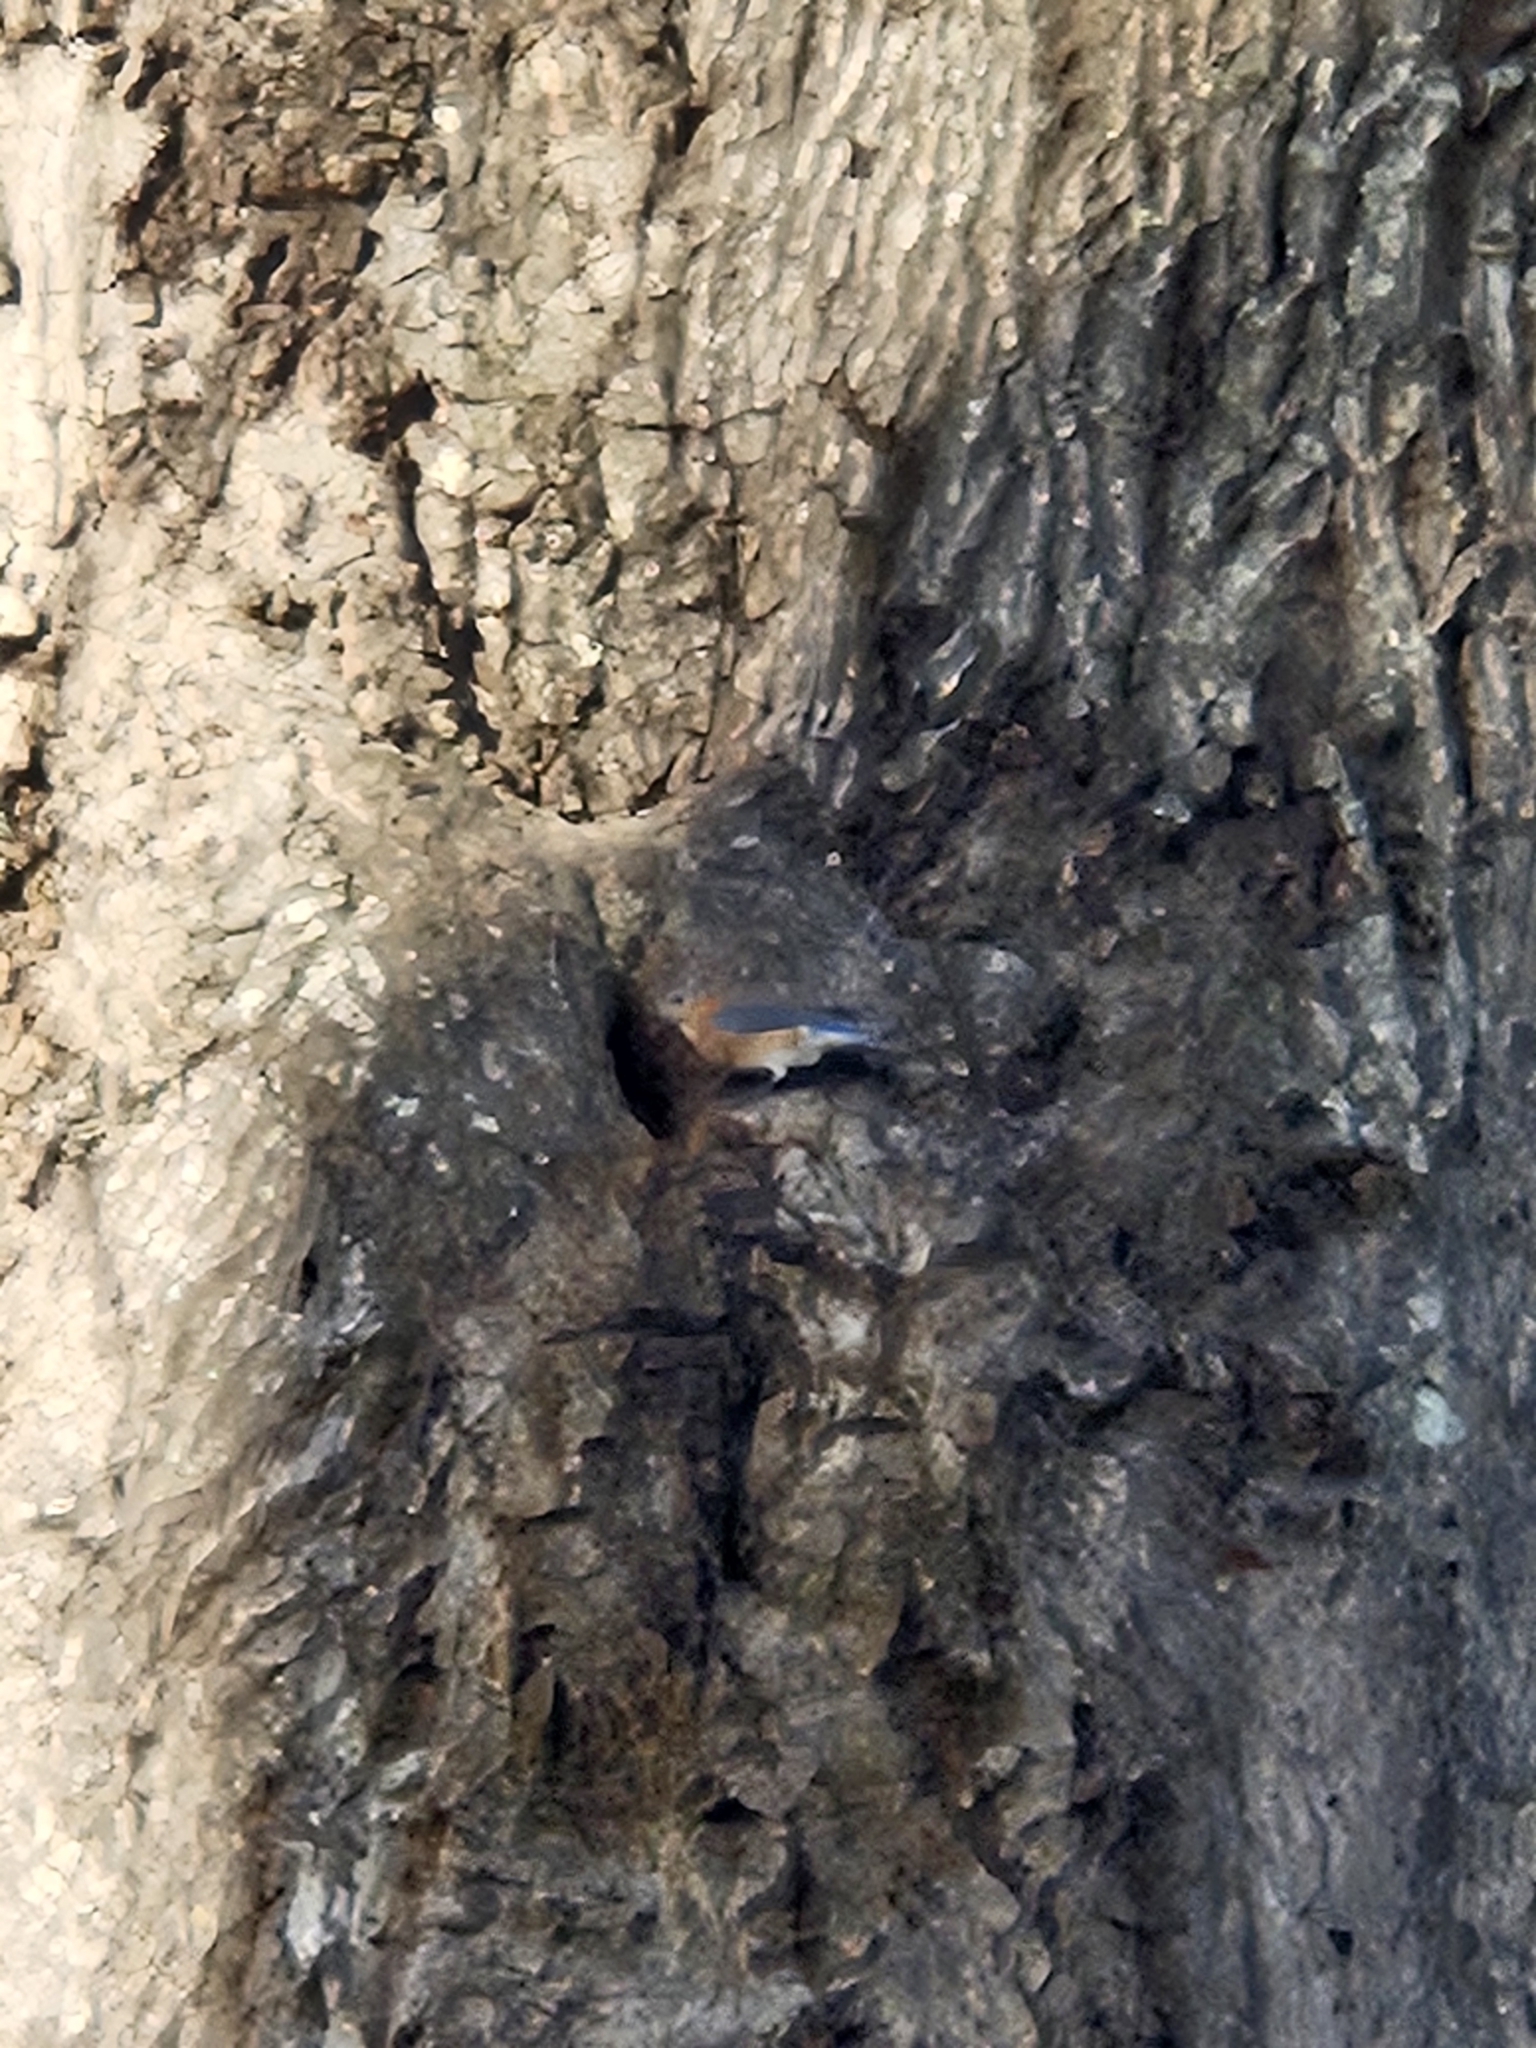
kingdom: Animalia
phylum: Chordata
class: Aves
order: Passeriformes
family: Turdidae
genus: Sialia
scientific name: Sialia sialis
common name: Eastern bluebird
